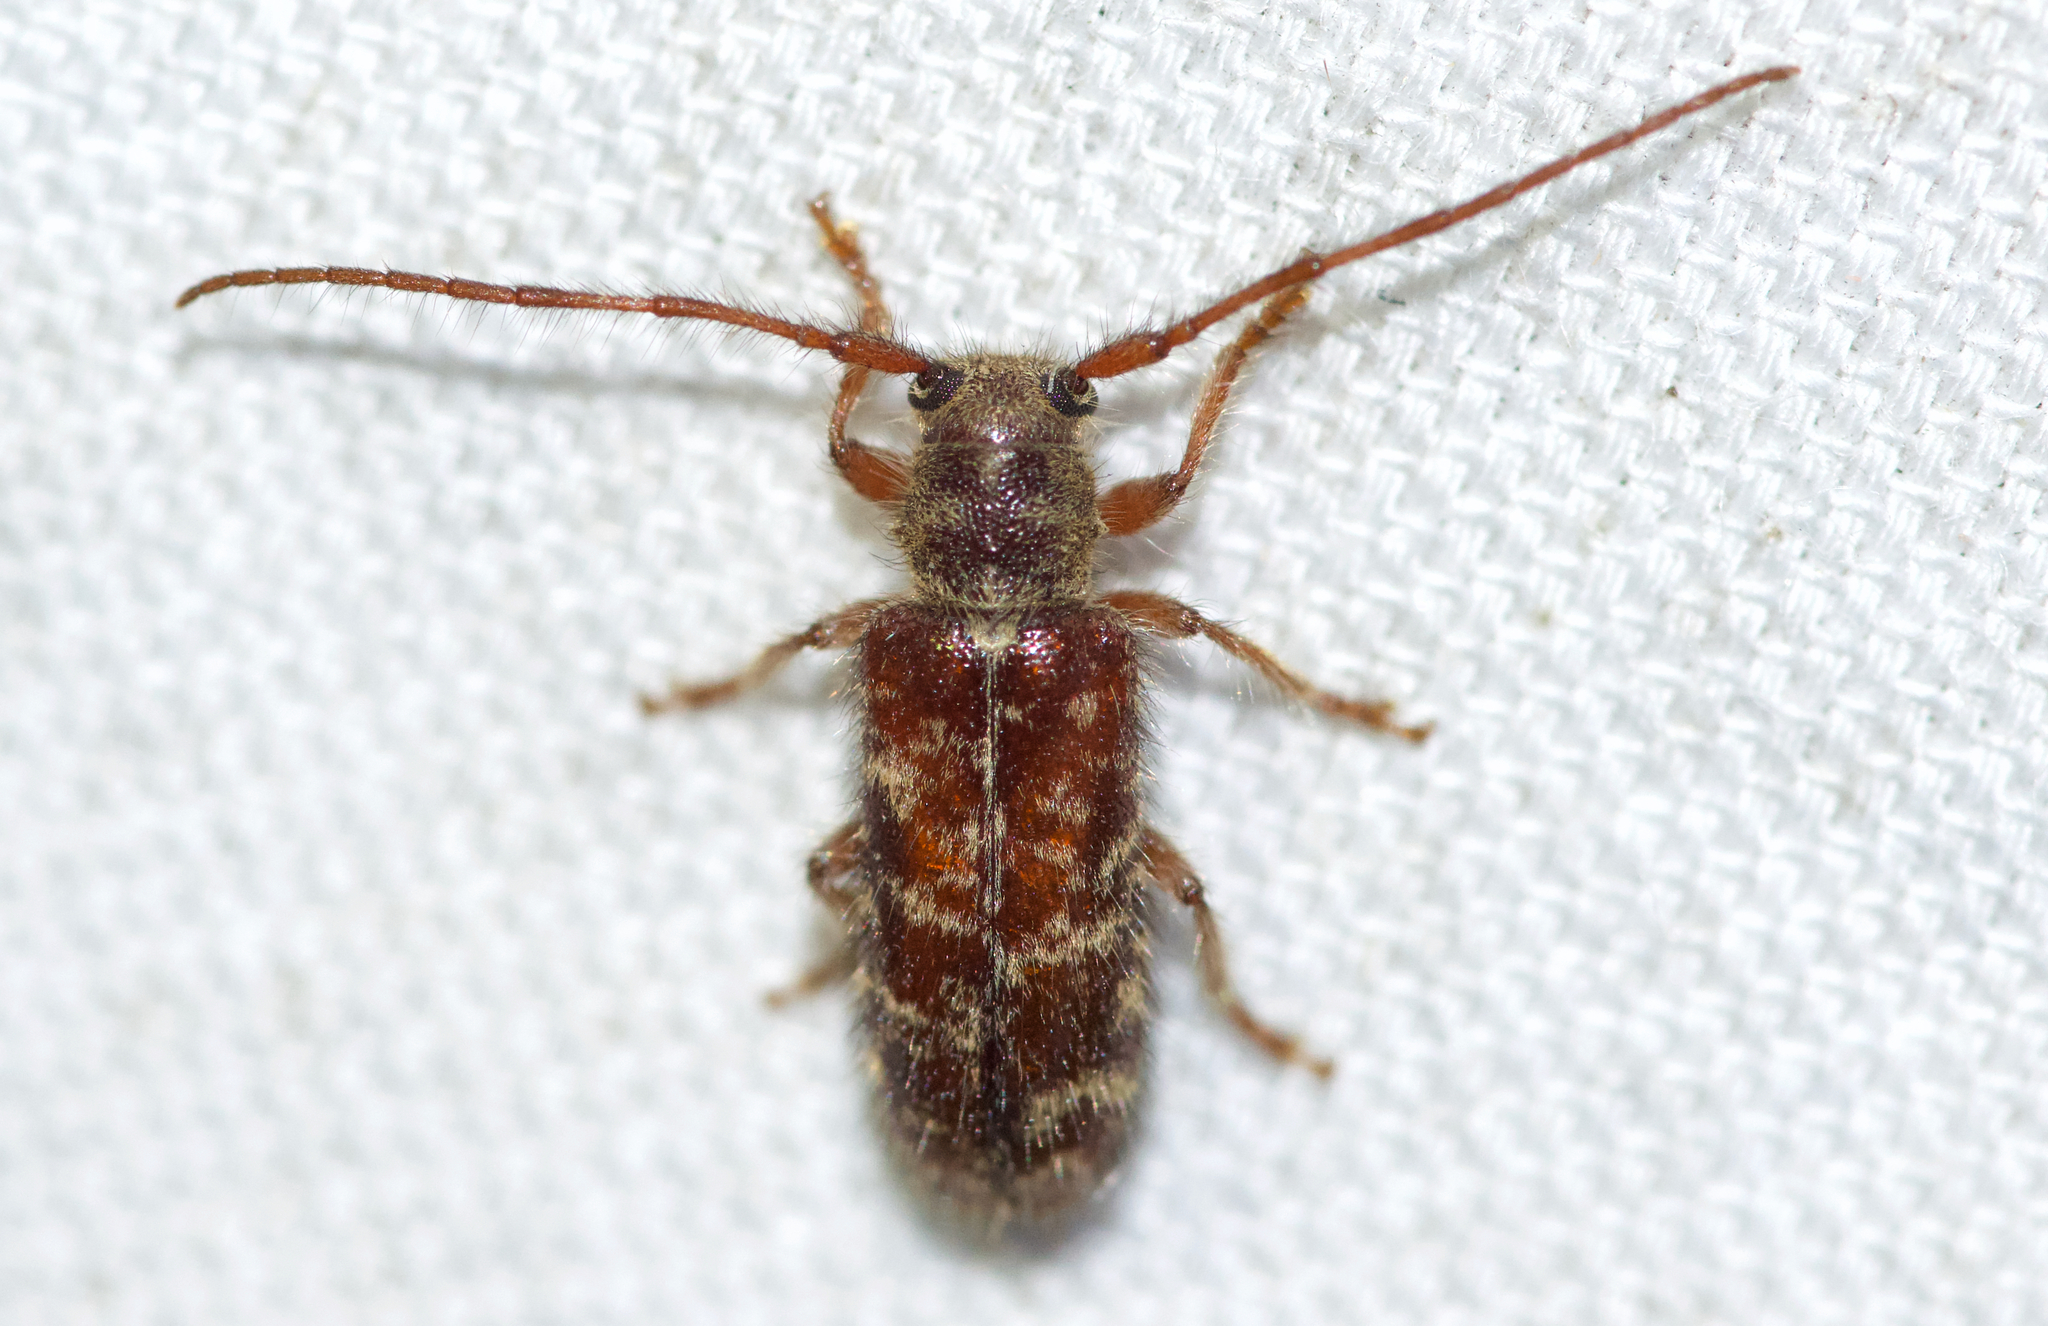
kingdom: Animalia
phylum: Arthropoda
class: Insecta
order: Coleoptera
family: Cerambycidae
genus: Eupogonius
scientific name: Eupogonius tomentosus
